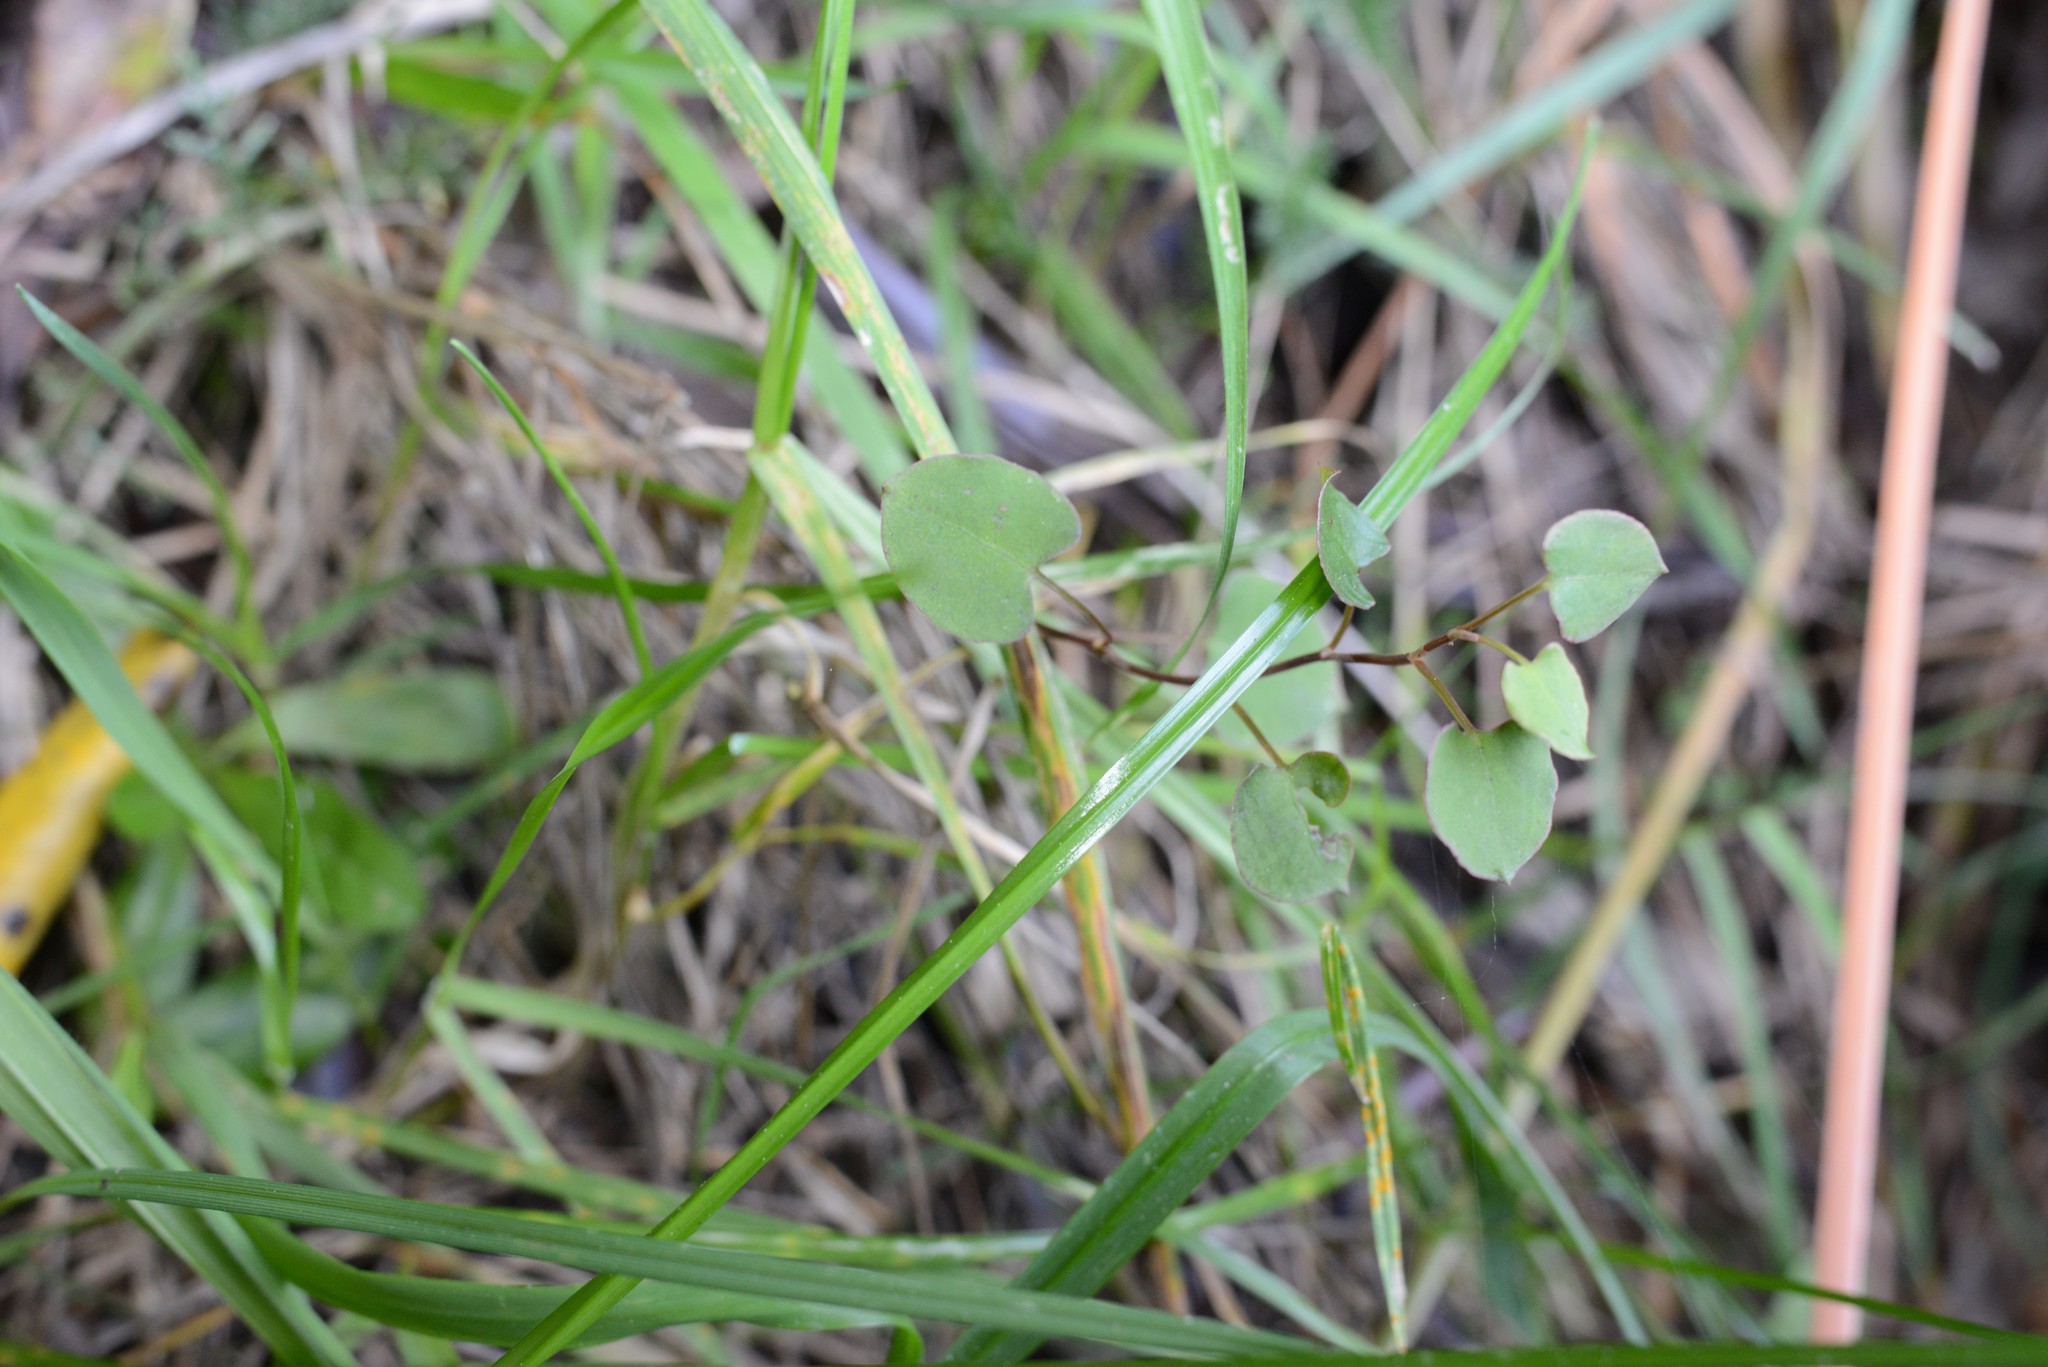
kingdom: Plantae
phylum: Tracheophyta
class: Magnoliopsida
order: Caryophyllales
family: Polygonaceae
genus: Muehlenbeckia
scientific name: Muehlenbeckia australis
